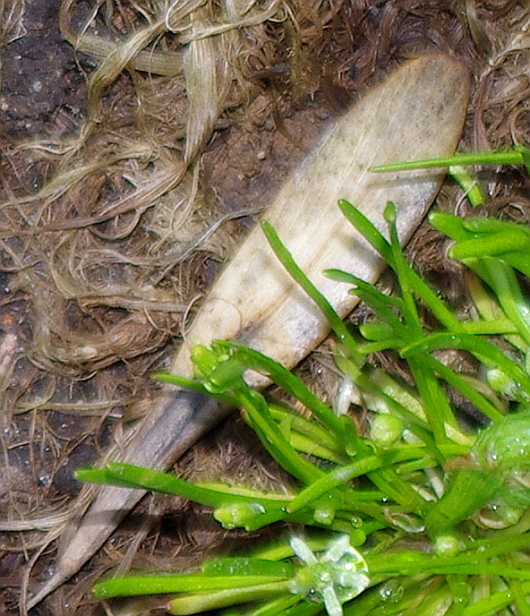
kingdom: Plantae
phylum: Tracheophyta
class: Magnoliopsida
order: Lamiales
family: Oleaceae
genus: Fraxinus
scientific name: Fraxinus pennsylvanica
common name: Green ash
